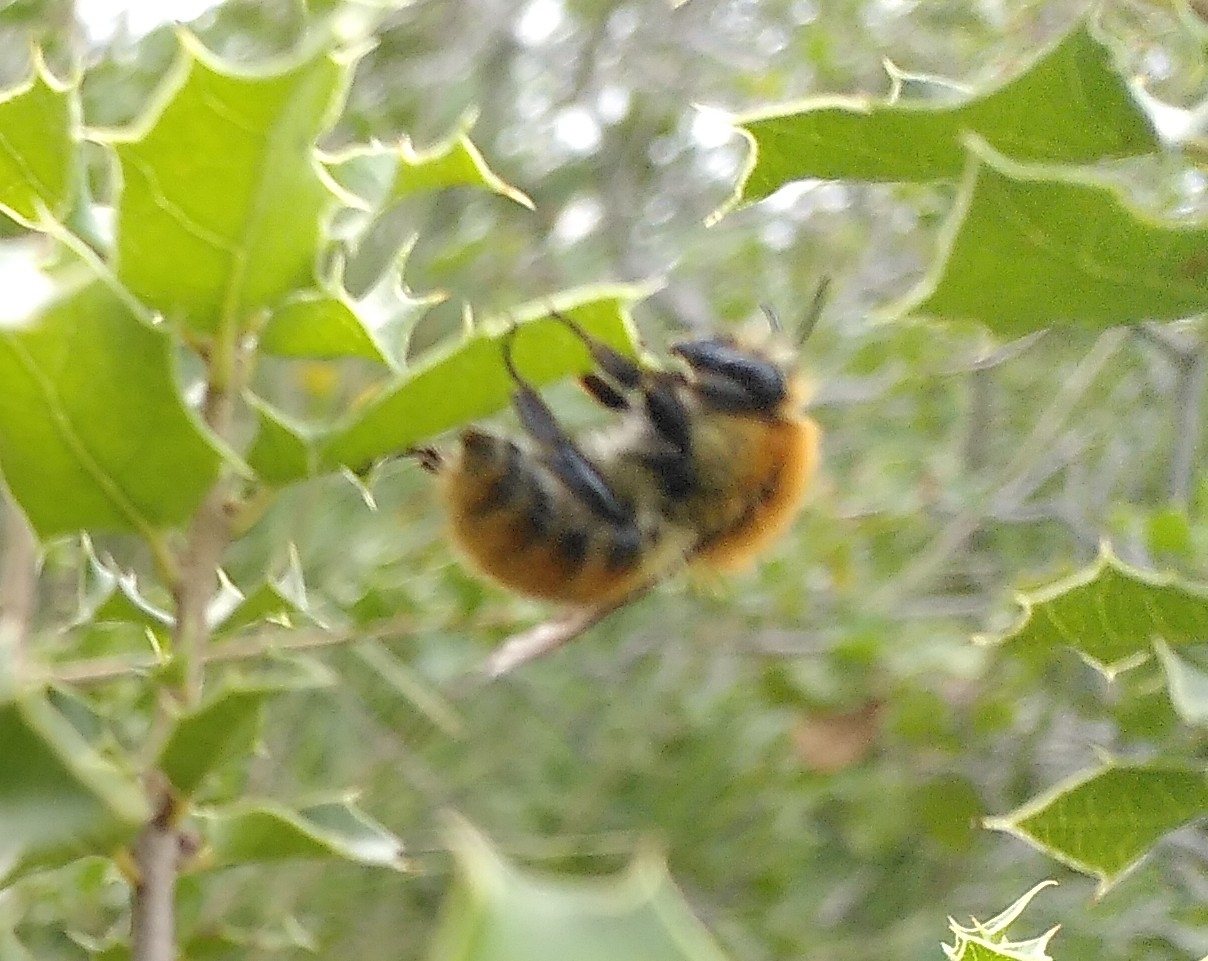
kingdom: Animalia
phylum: Arthropoda
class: Insecta
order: Hymenoptera
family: Apidae
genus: Bombus
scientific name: Bombus pascuorum
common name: Common carder bee
